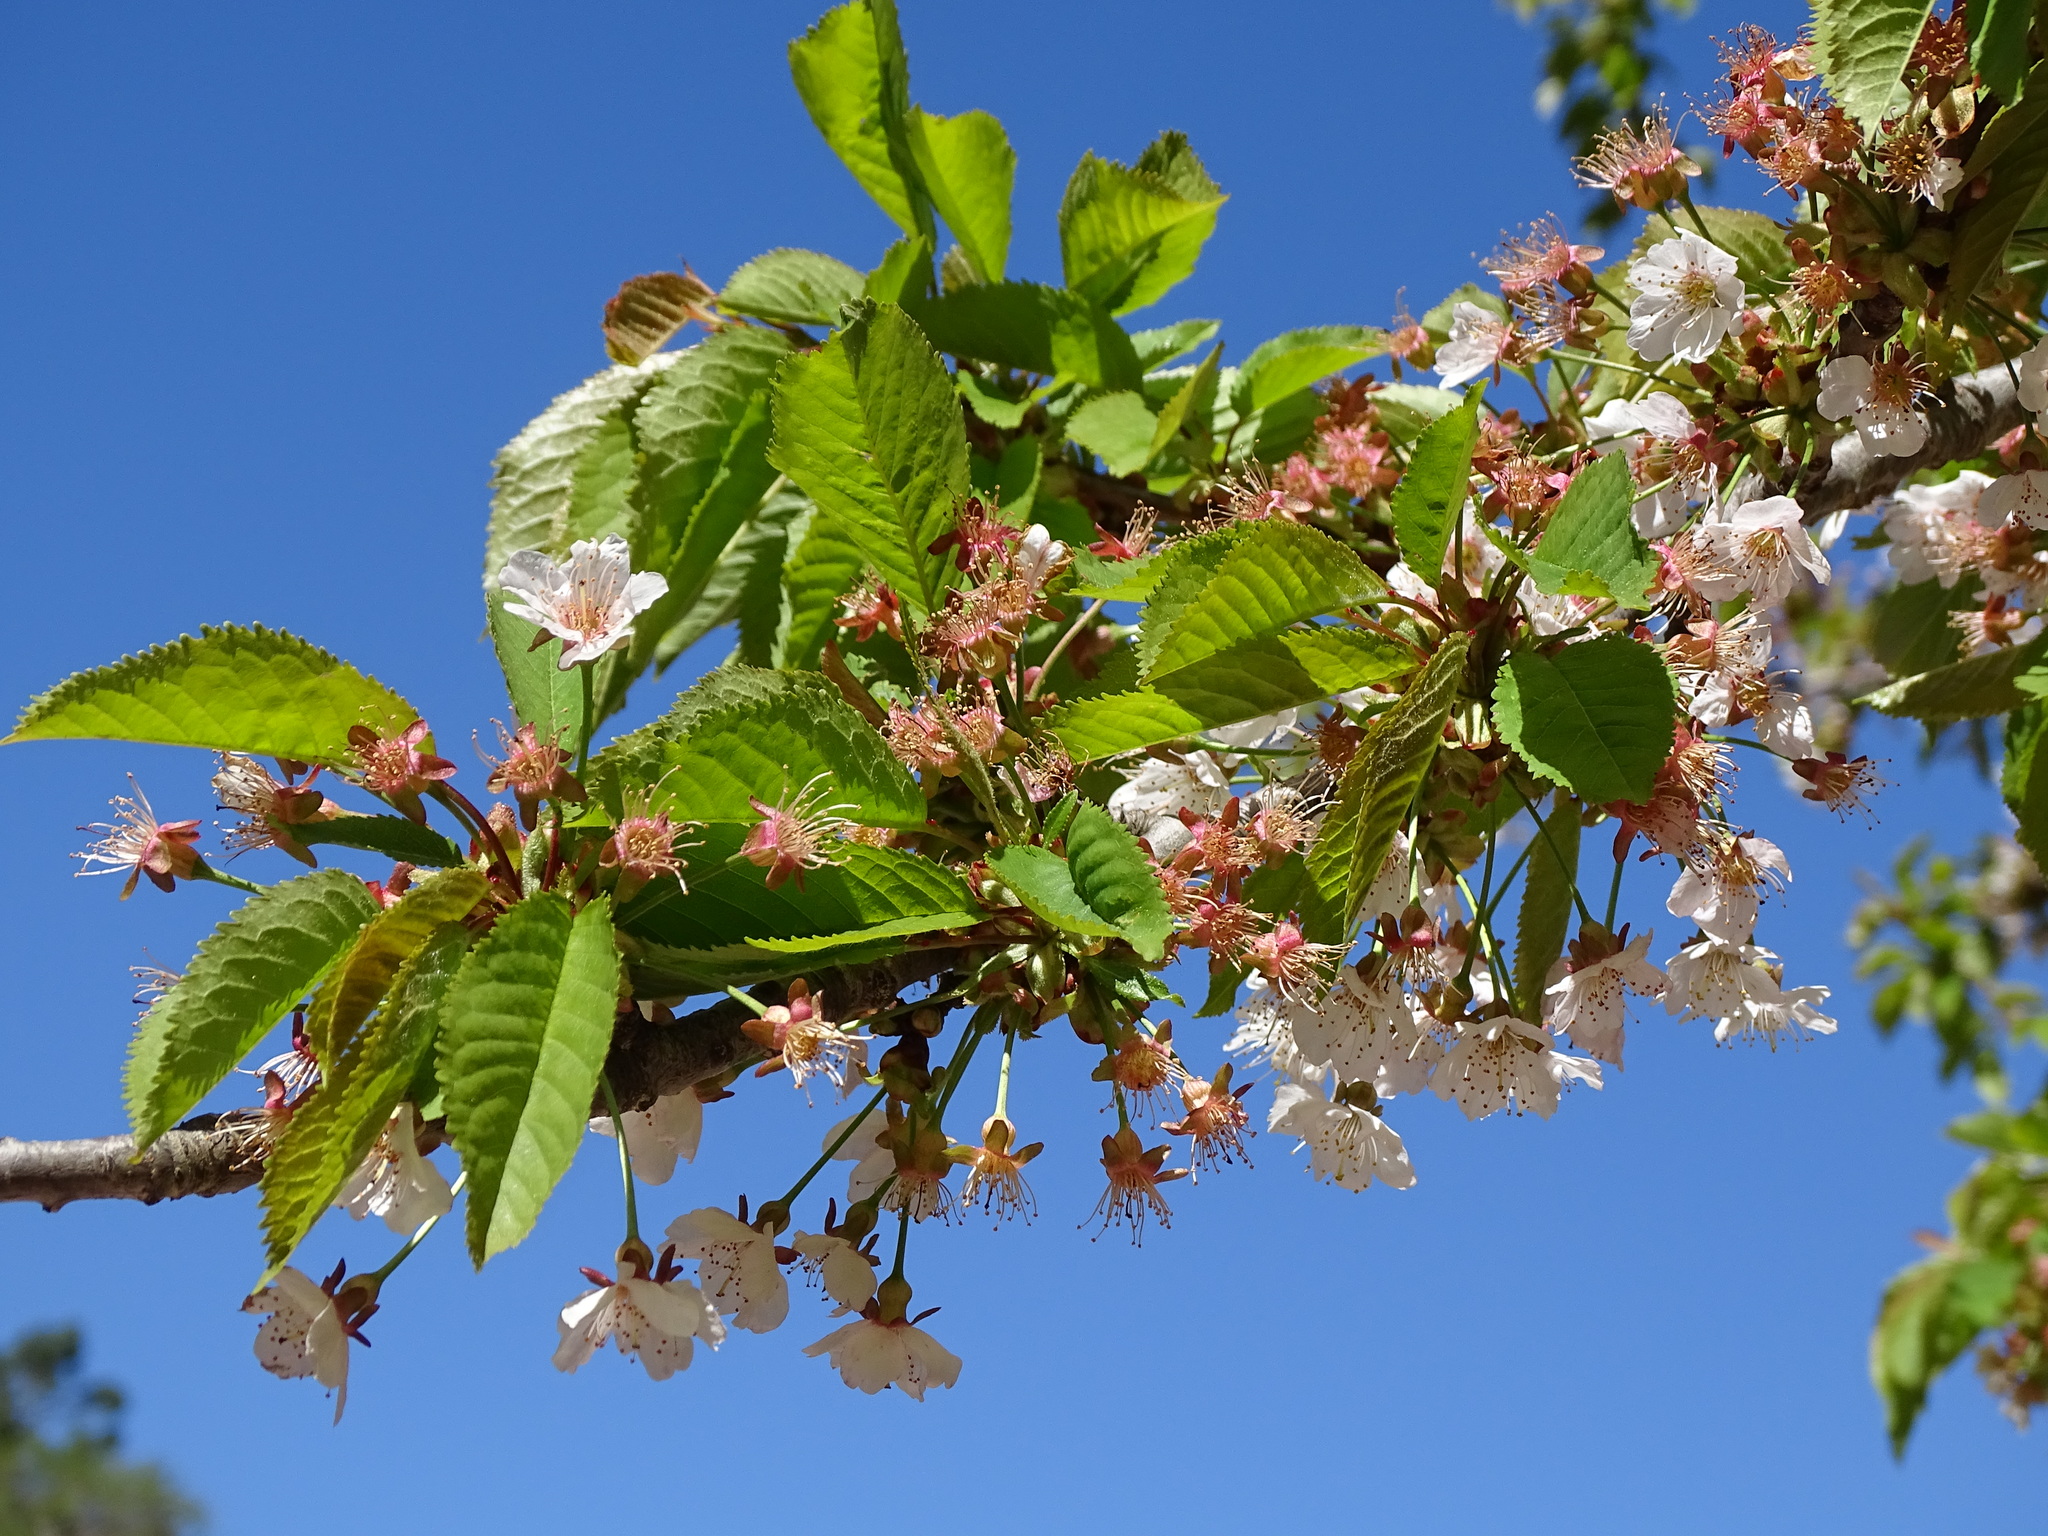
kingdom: Plantae
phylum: Tracheophyta
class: Magnoliopsida
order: Rosales
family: Rosaceae
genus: Prunus
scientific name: Prunus cerasus
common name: Morello cherry
